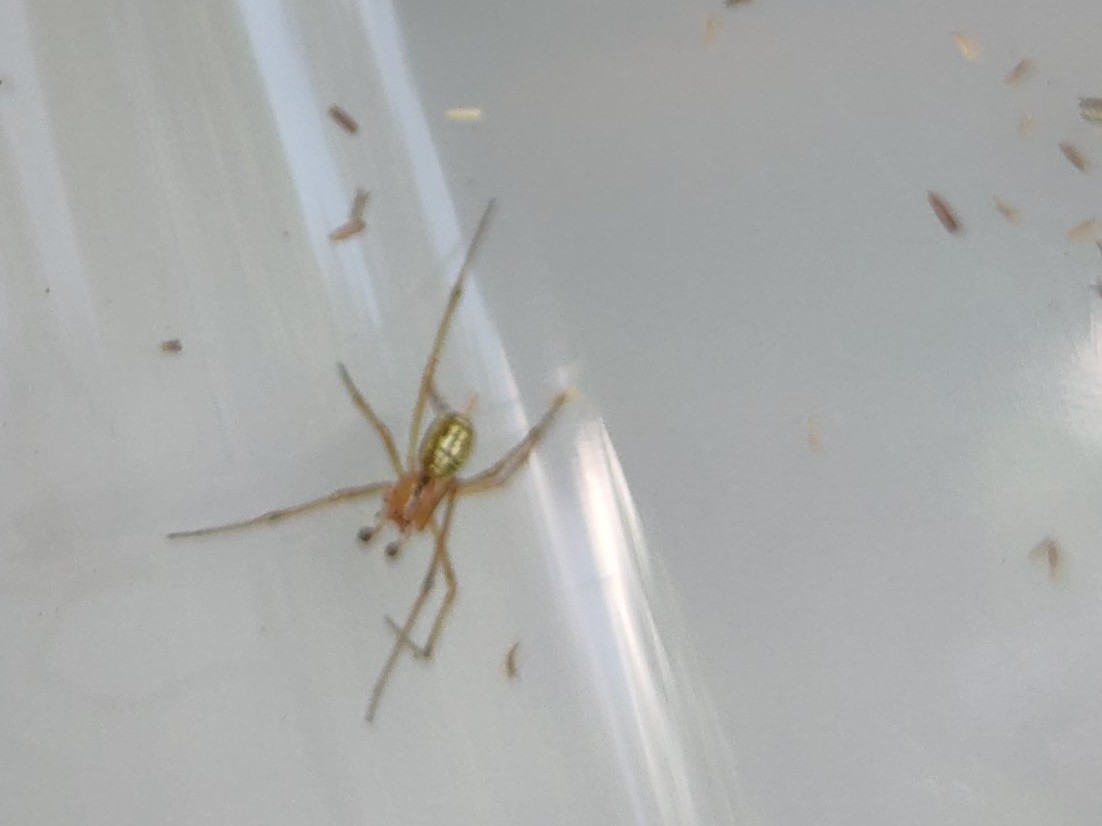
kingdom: Animalia
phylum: Arthropoda
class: Arachnida
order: Araneae
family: Theridiidae
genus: Enoplognatha
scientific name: Enoplognatha ovata
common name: Common candy-striped spider
